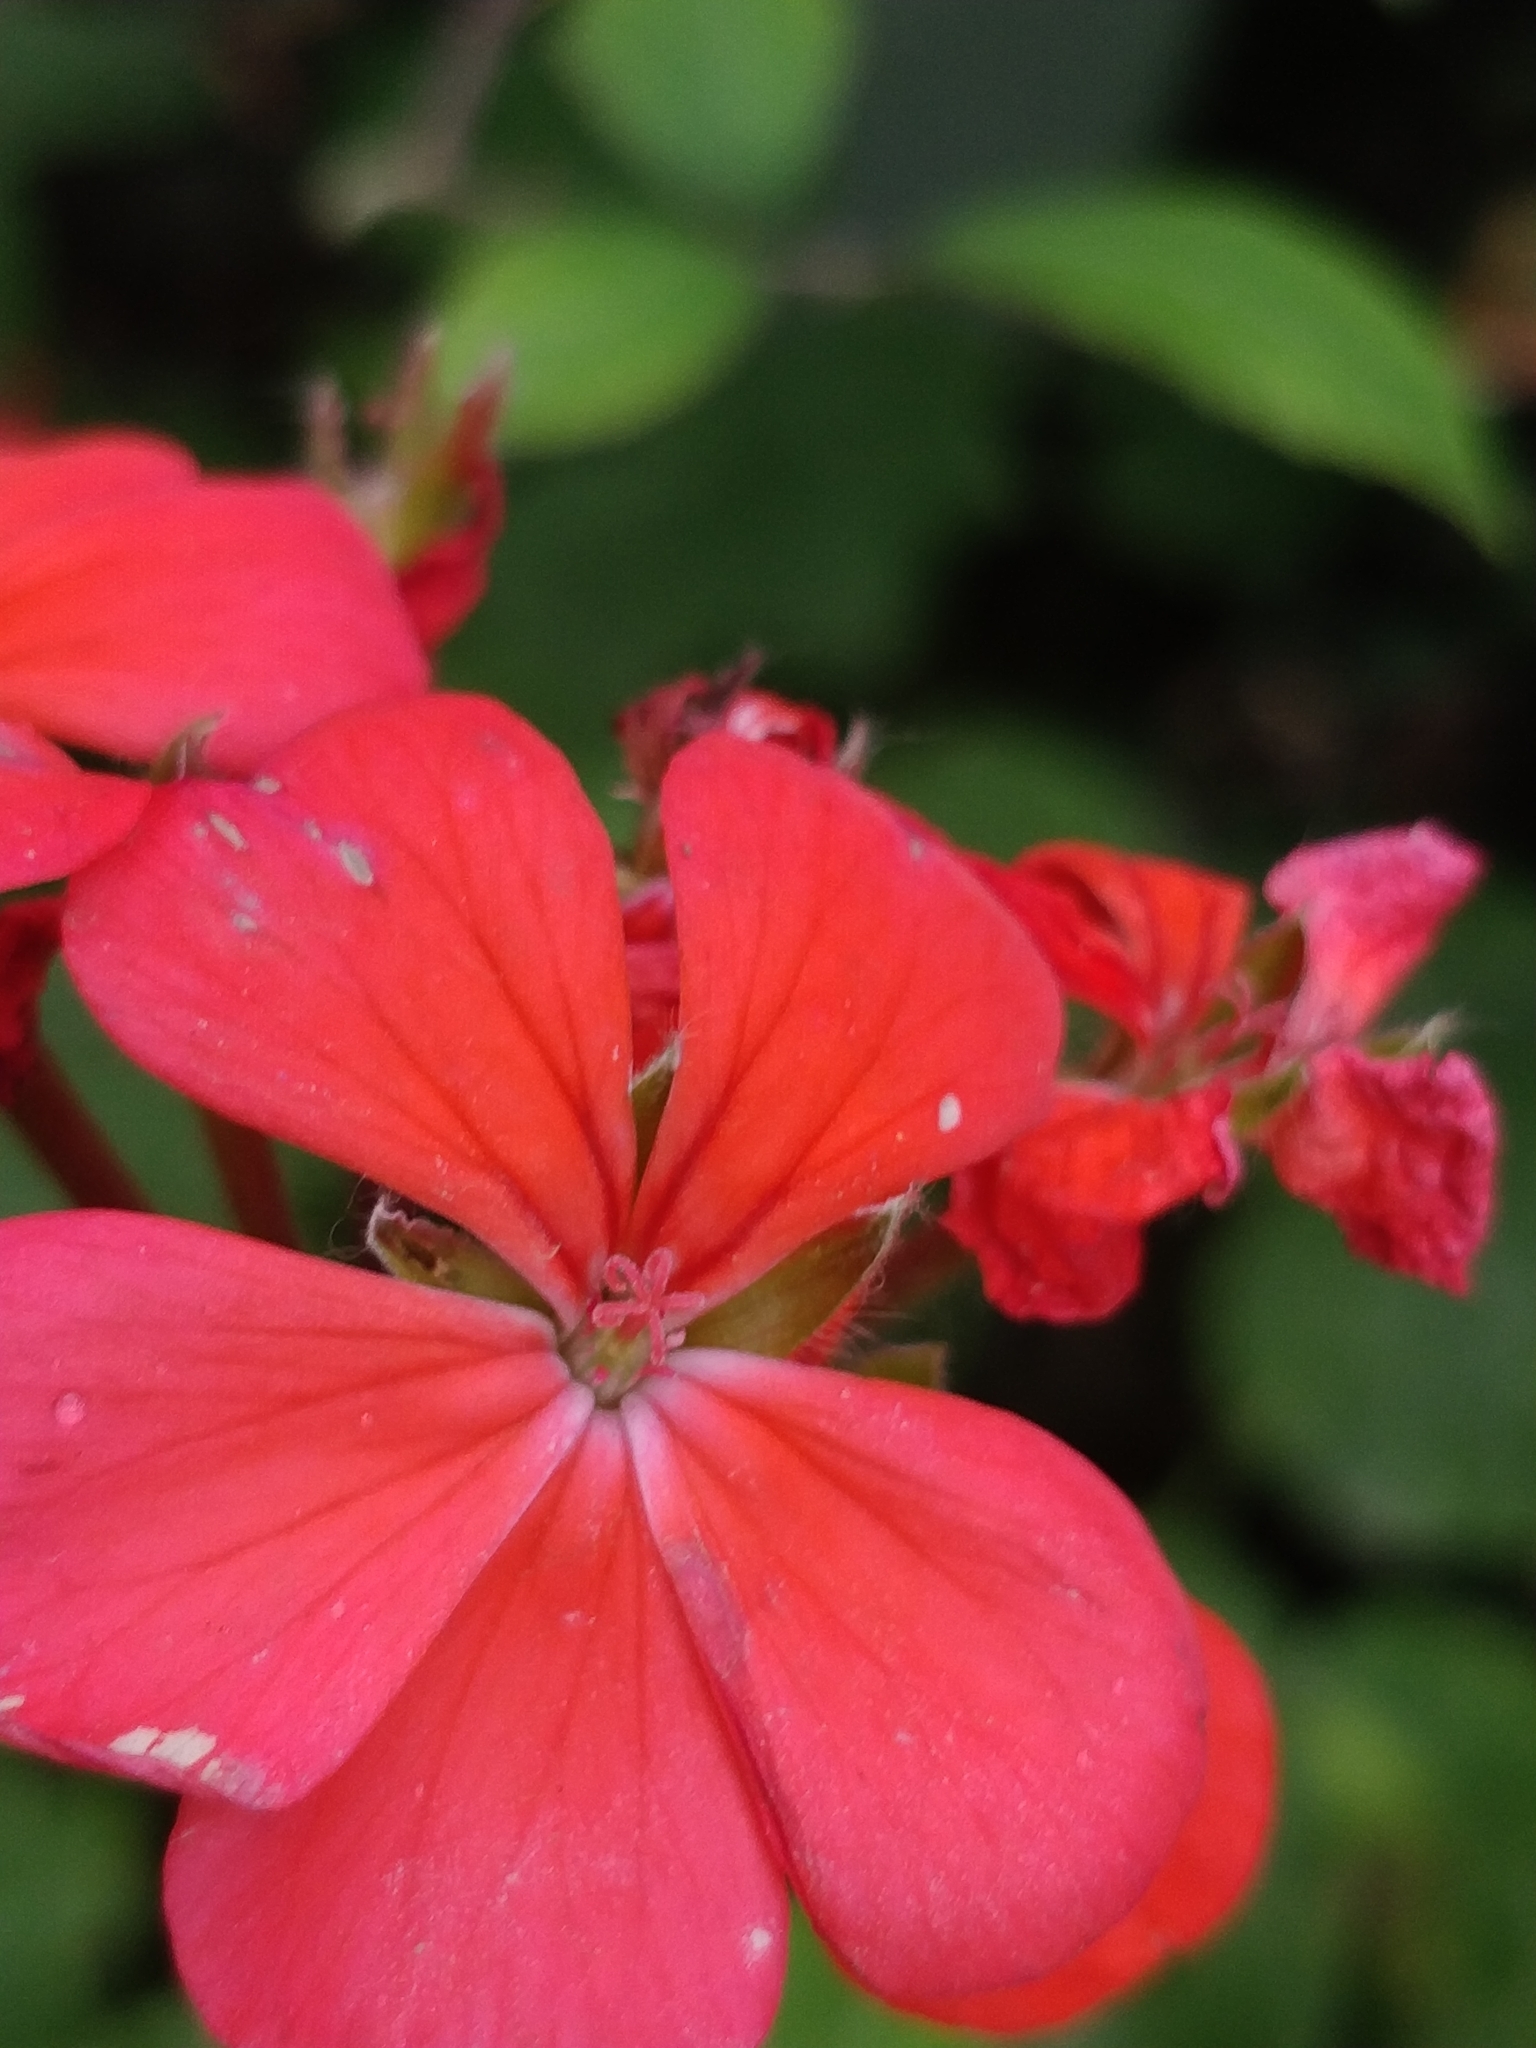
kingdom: Plantae
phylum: Tracheophyta
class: Magnoliopsida
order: Geraniales
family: Geraniaceae
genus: Pelargonium
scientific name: Pelargonium hybridum
